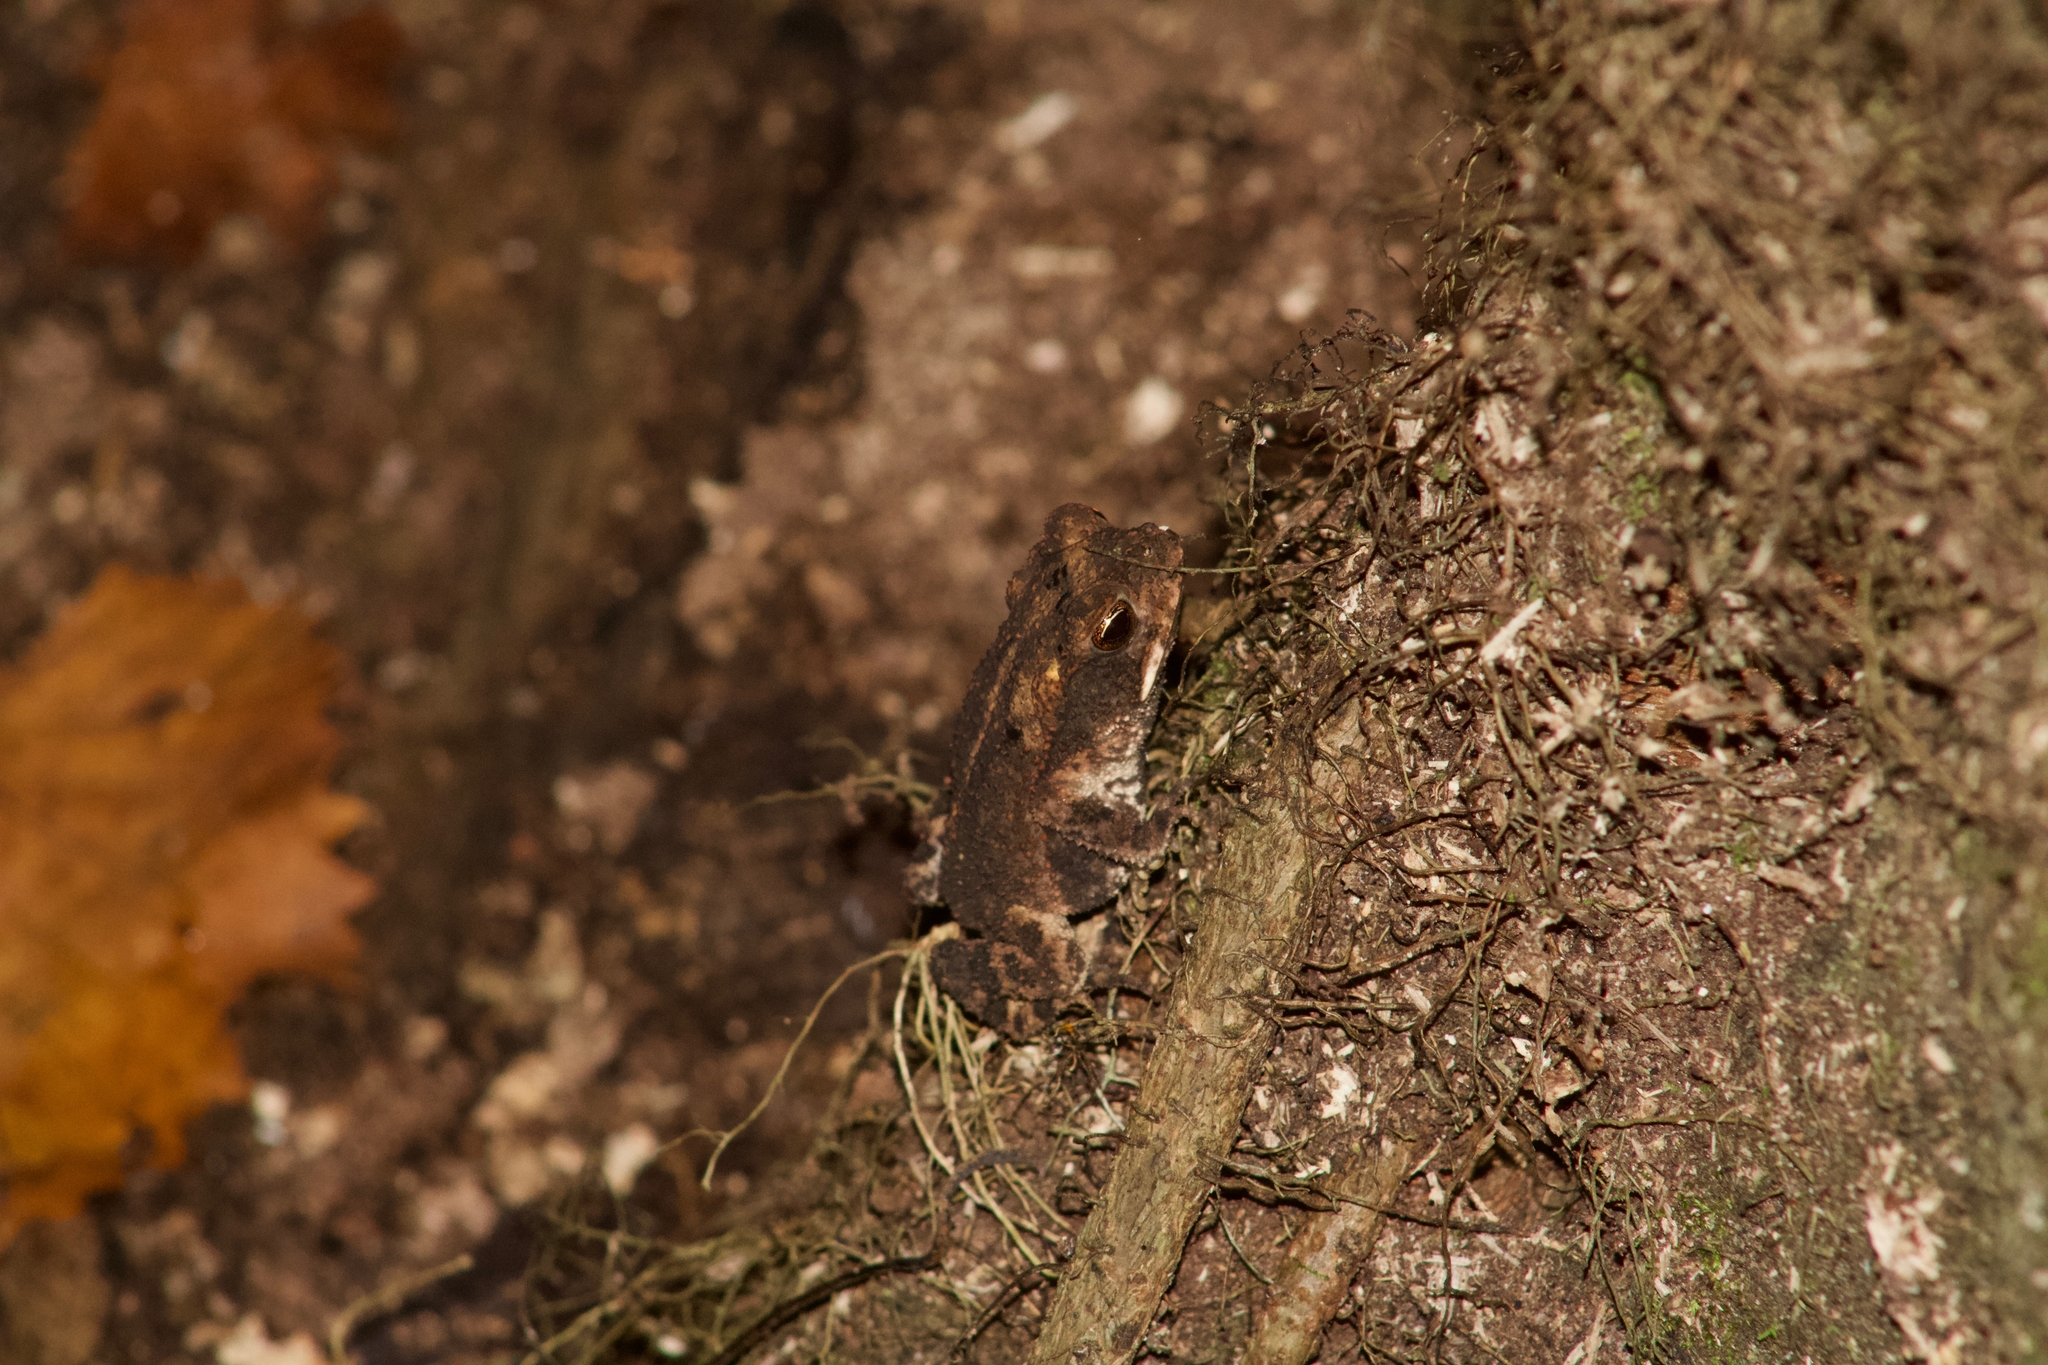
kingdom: Animalia
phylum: Chordata
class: Amphibia
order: Anura
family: Bufonidae
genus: Incilius
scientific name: Incilius nebulifer
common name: Gulf coast toad
